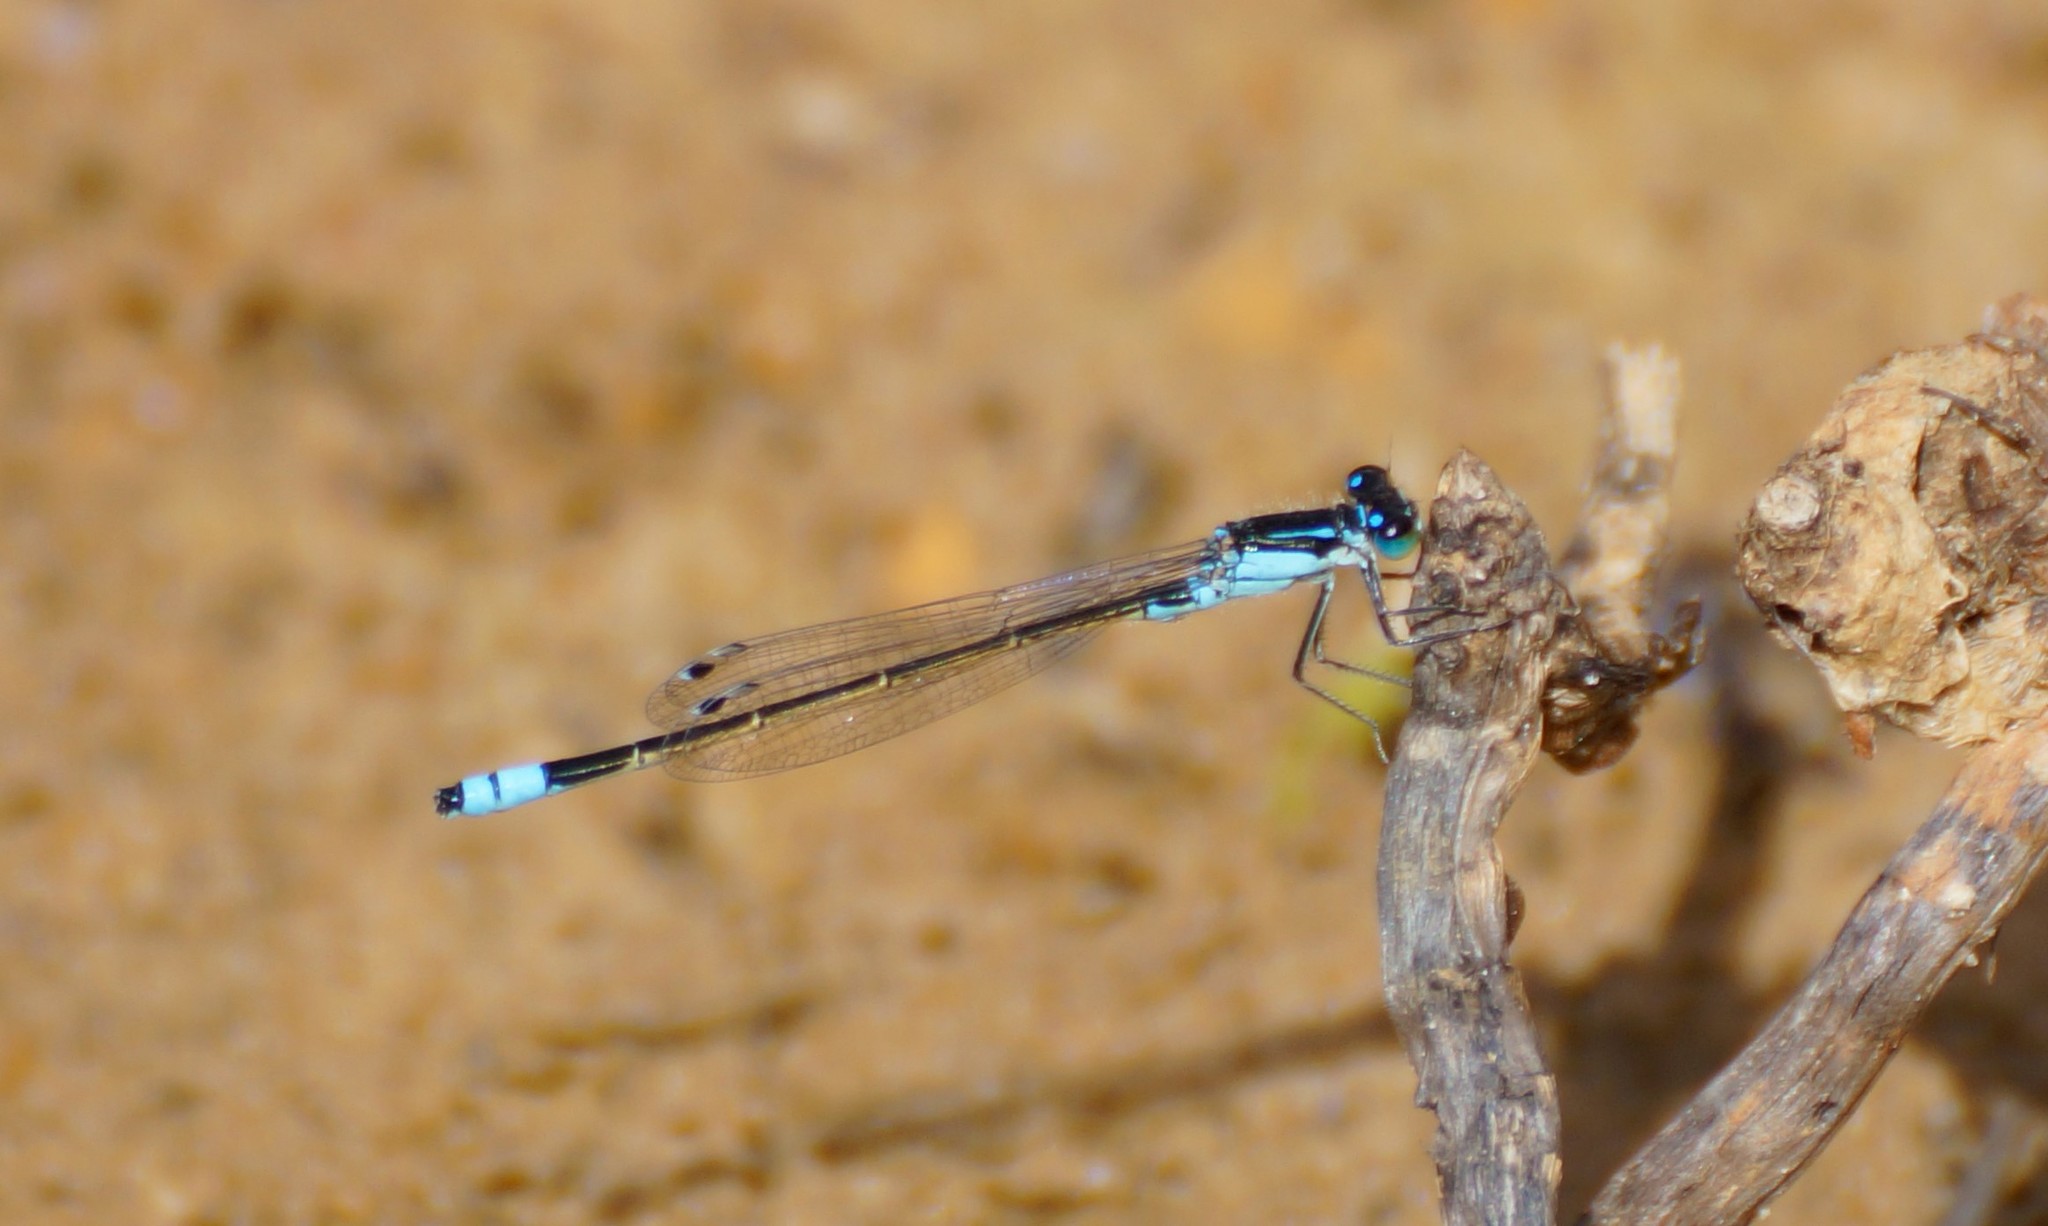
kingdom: Animalia
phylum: Arthropoda
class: Insecta
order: Odonata
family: Coenagrionidae
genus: Ischnura
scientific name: Ischnura heterosticta
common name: Common bluetail
